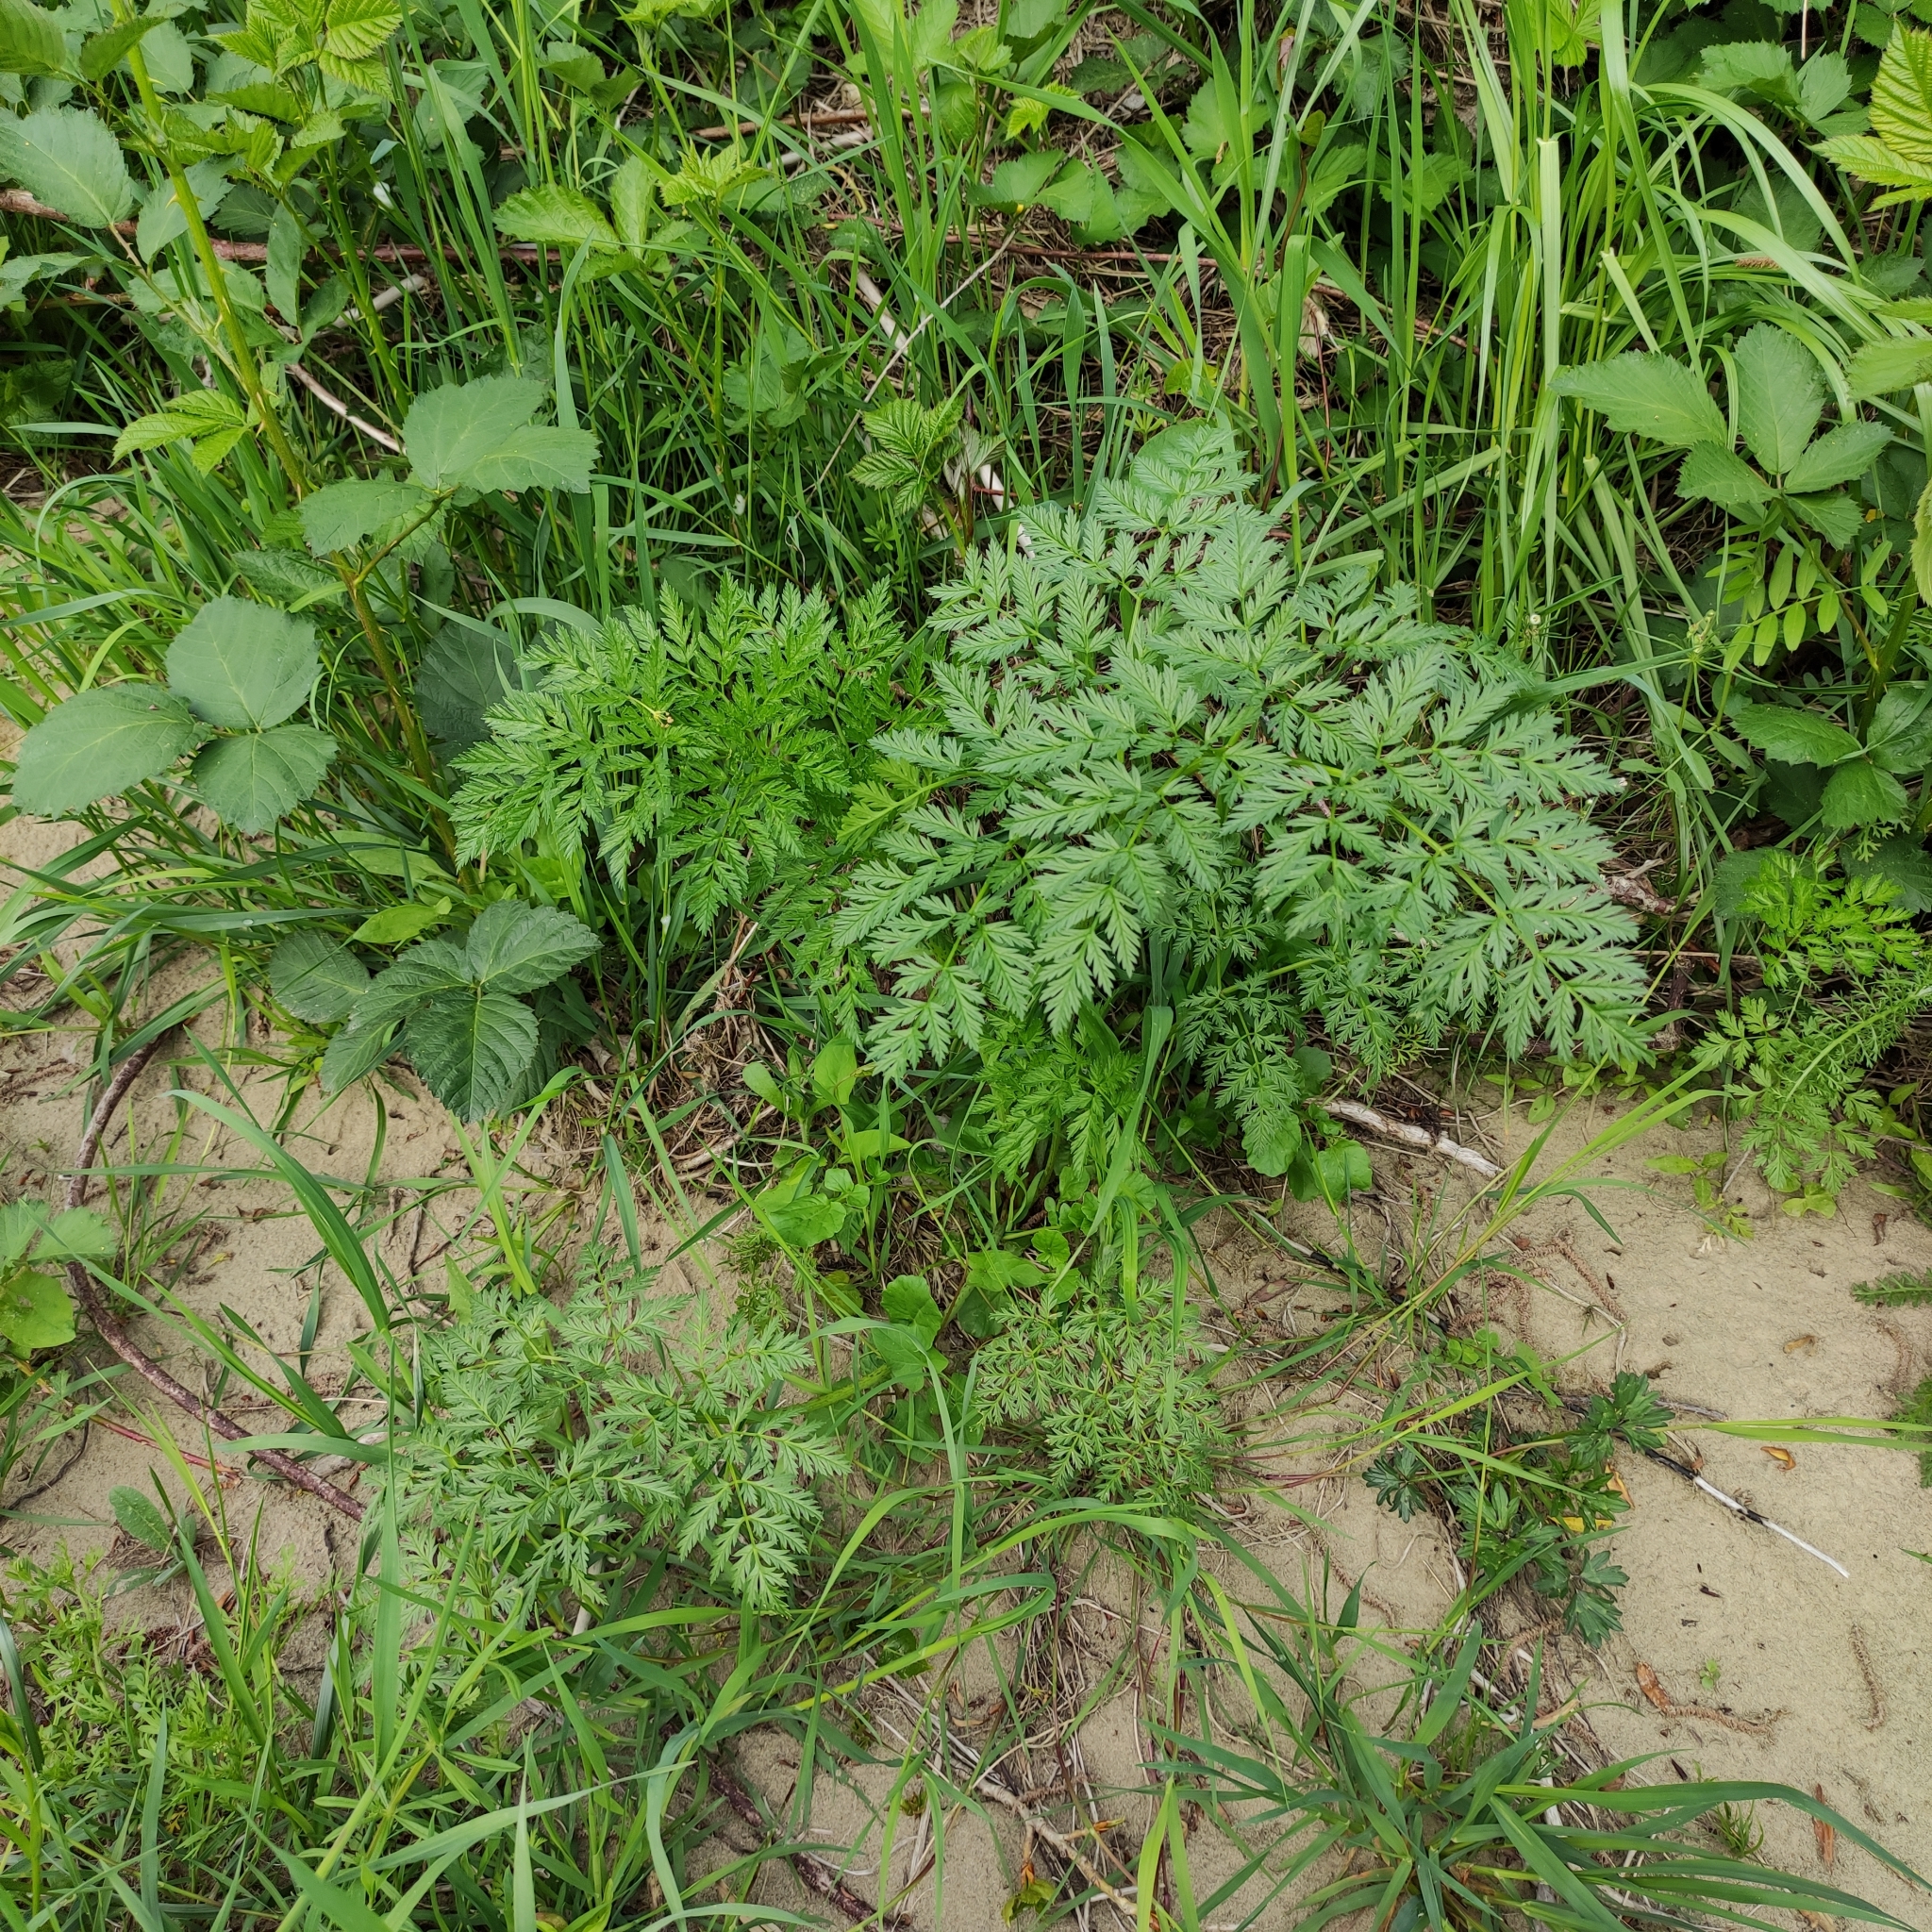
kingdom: Plantae
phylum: Tracheophyta
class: Magnoliopsida
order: Apiales
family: Apiaceae
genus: Conium
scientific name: Conium maculatum
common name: Hemlock
